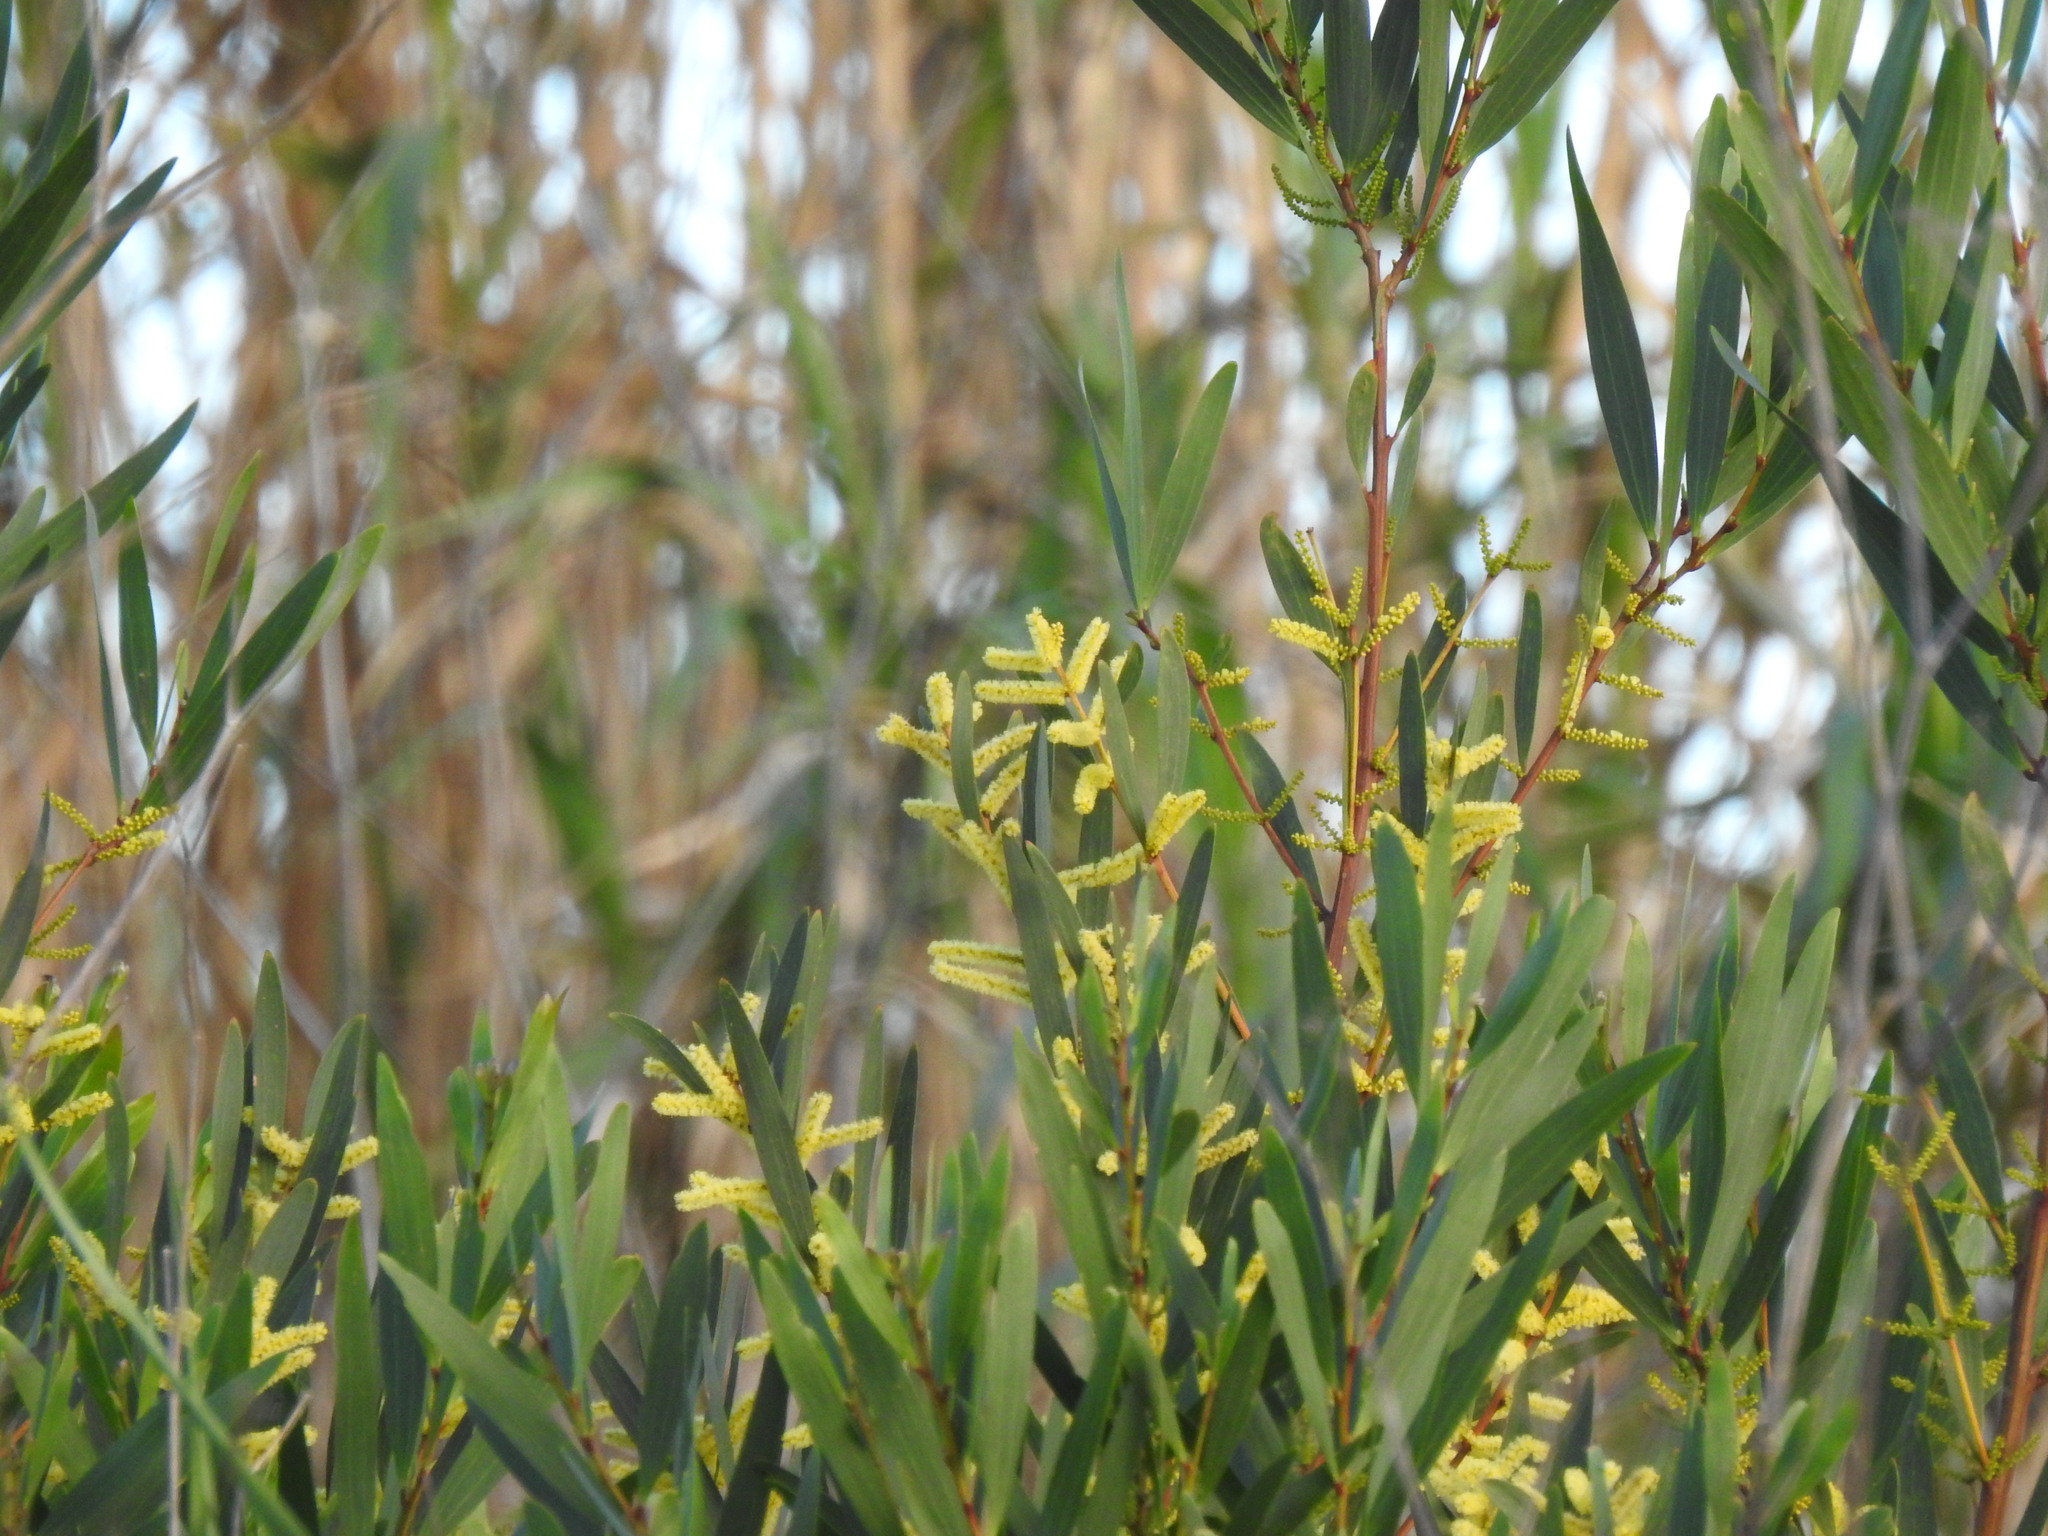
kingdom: Plantae
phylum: Tracheophyta
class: Magnoliopsida
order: Fabales
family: Fabaceae
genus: Acacia
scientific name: Acacia longifolia
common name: Sydney golden wattle
